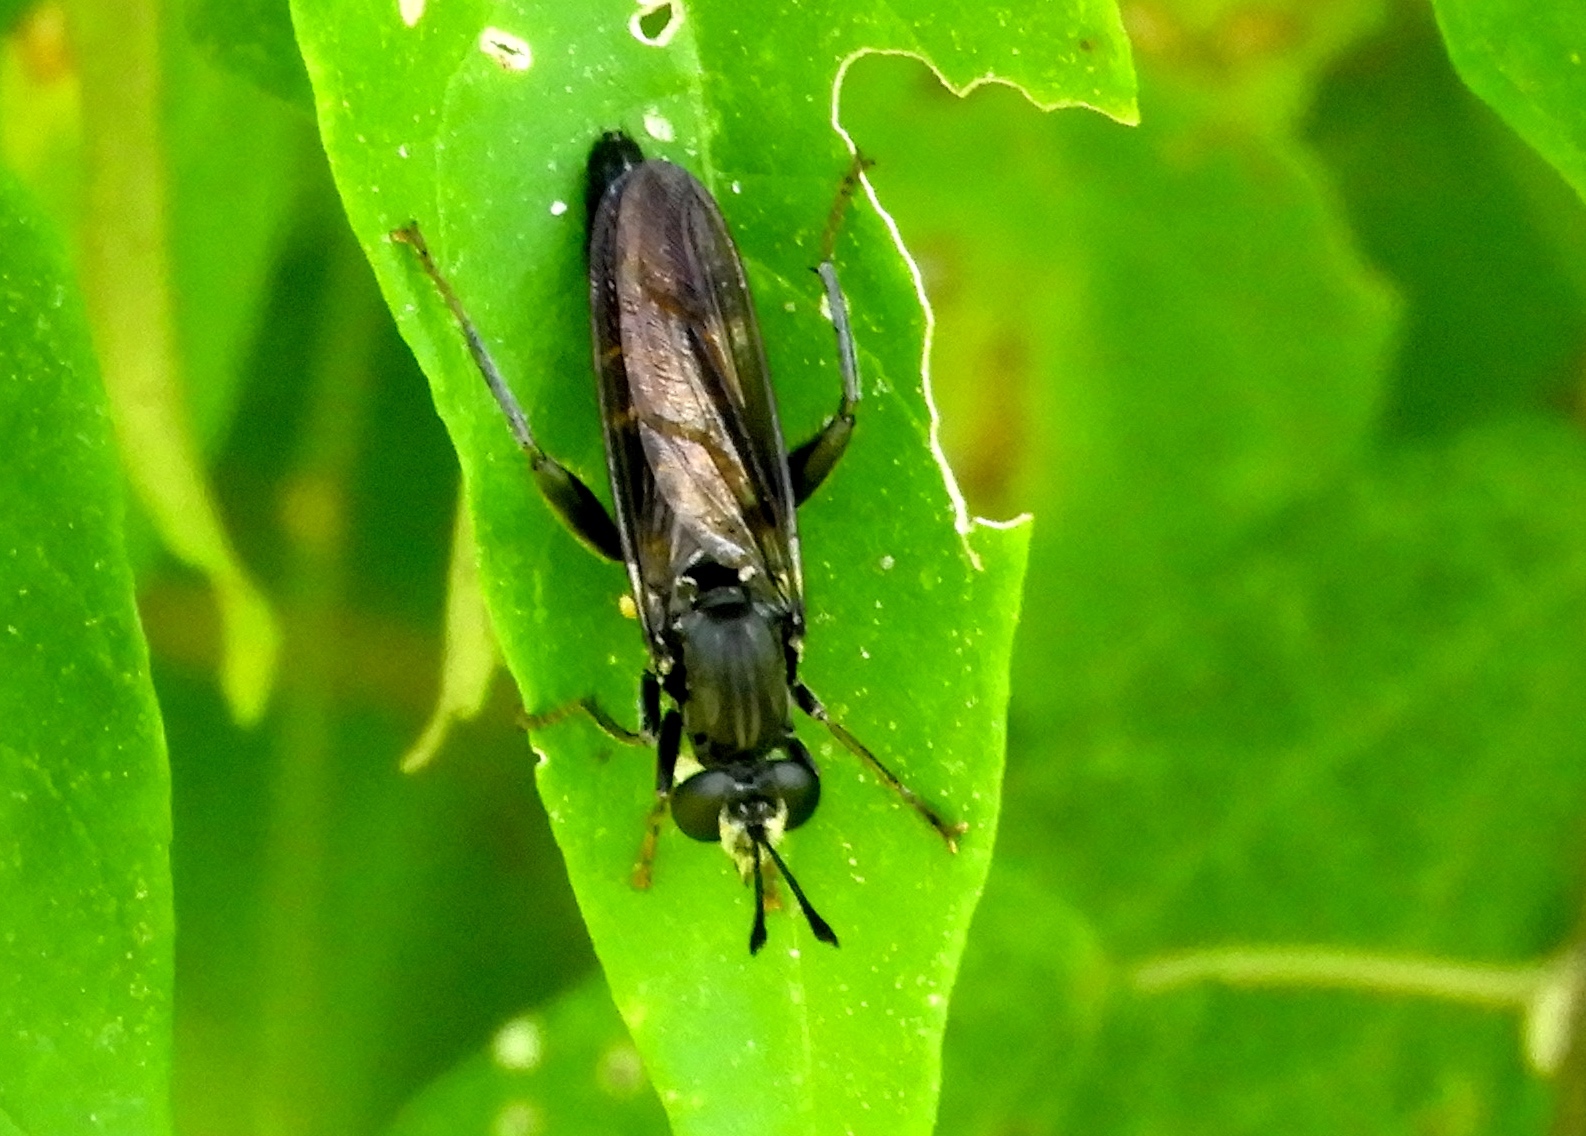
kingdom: Animalia
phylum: Arthropoda
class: Insecta
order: Diptera
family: Mydidae
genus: Mydas
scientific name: Mydas
